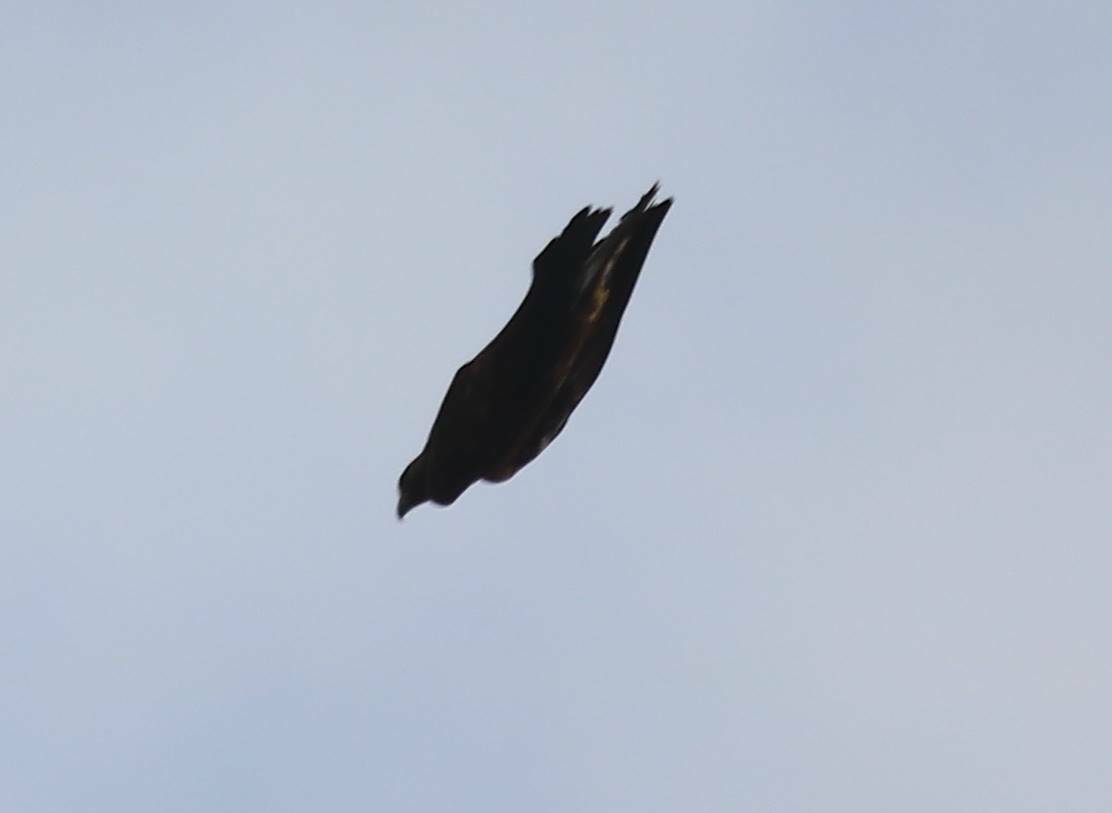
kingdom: Animalia
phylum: Chordata
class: Aves
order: Accipitriformes
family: Accipitridae
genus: Aquila
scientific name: Aquila chrysaetos
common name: Golden eagle
